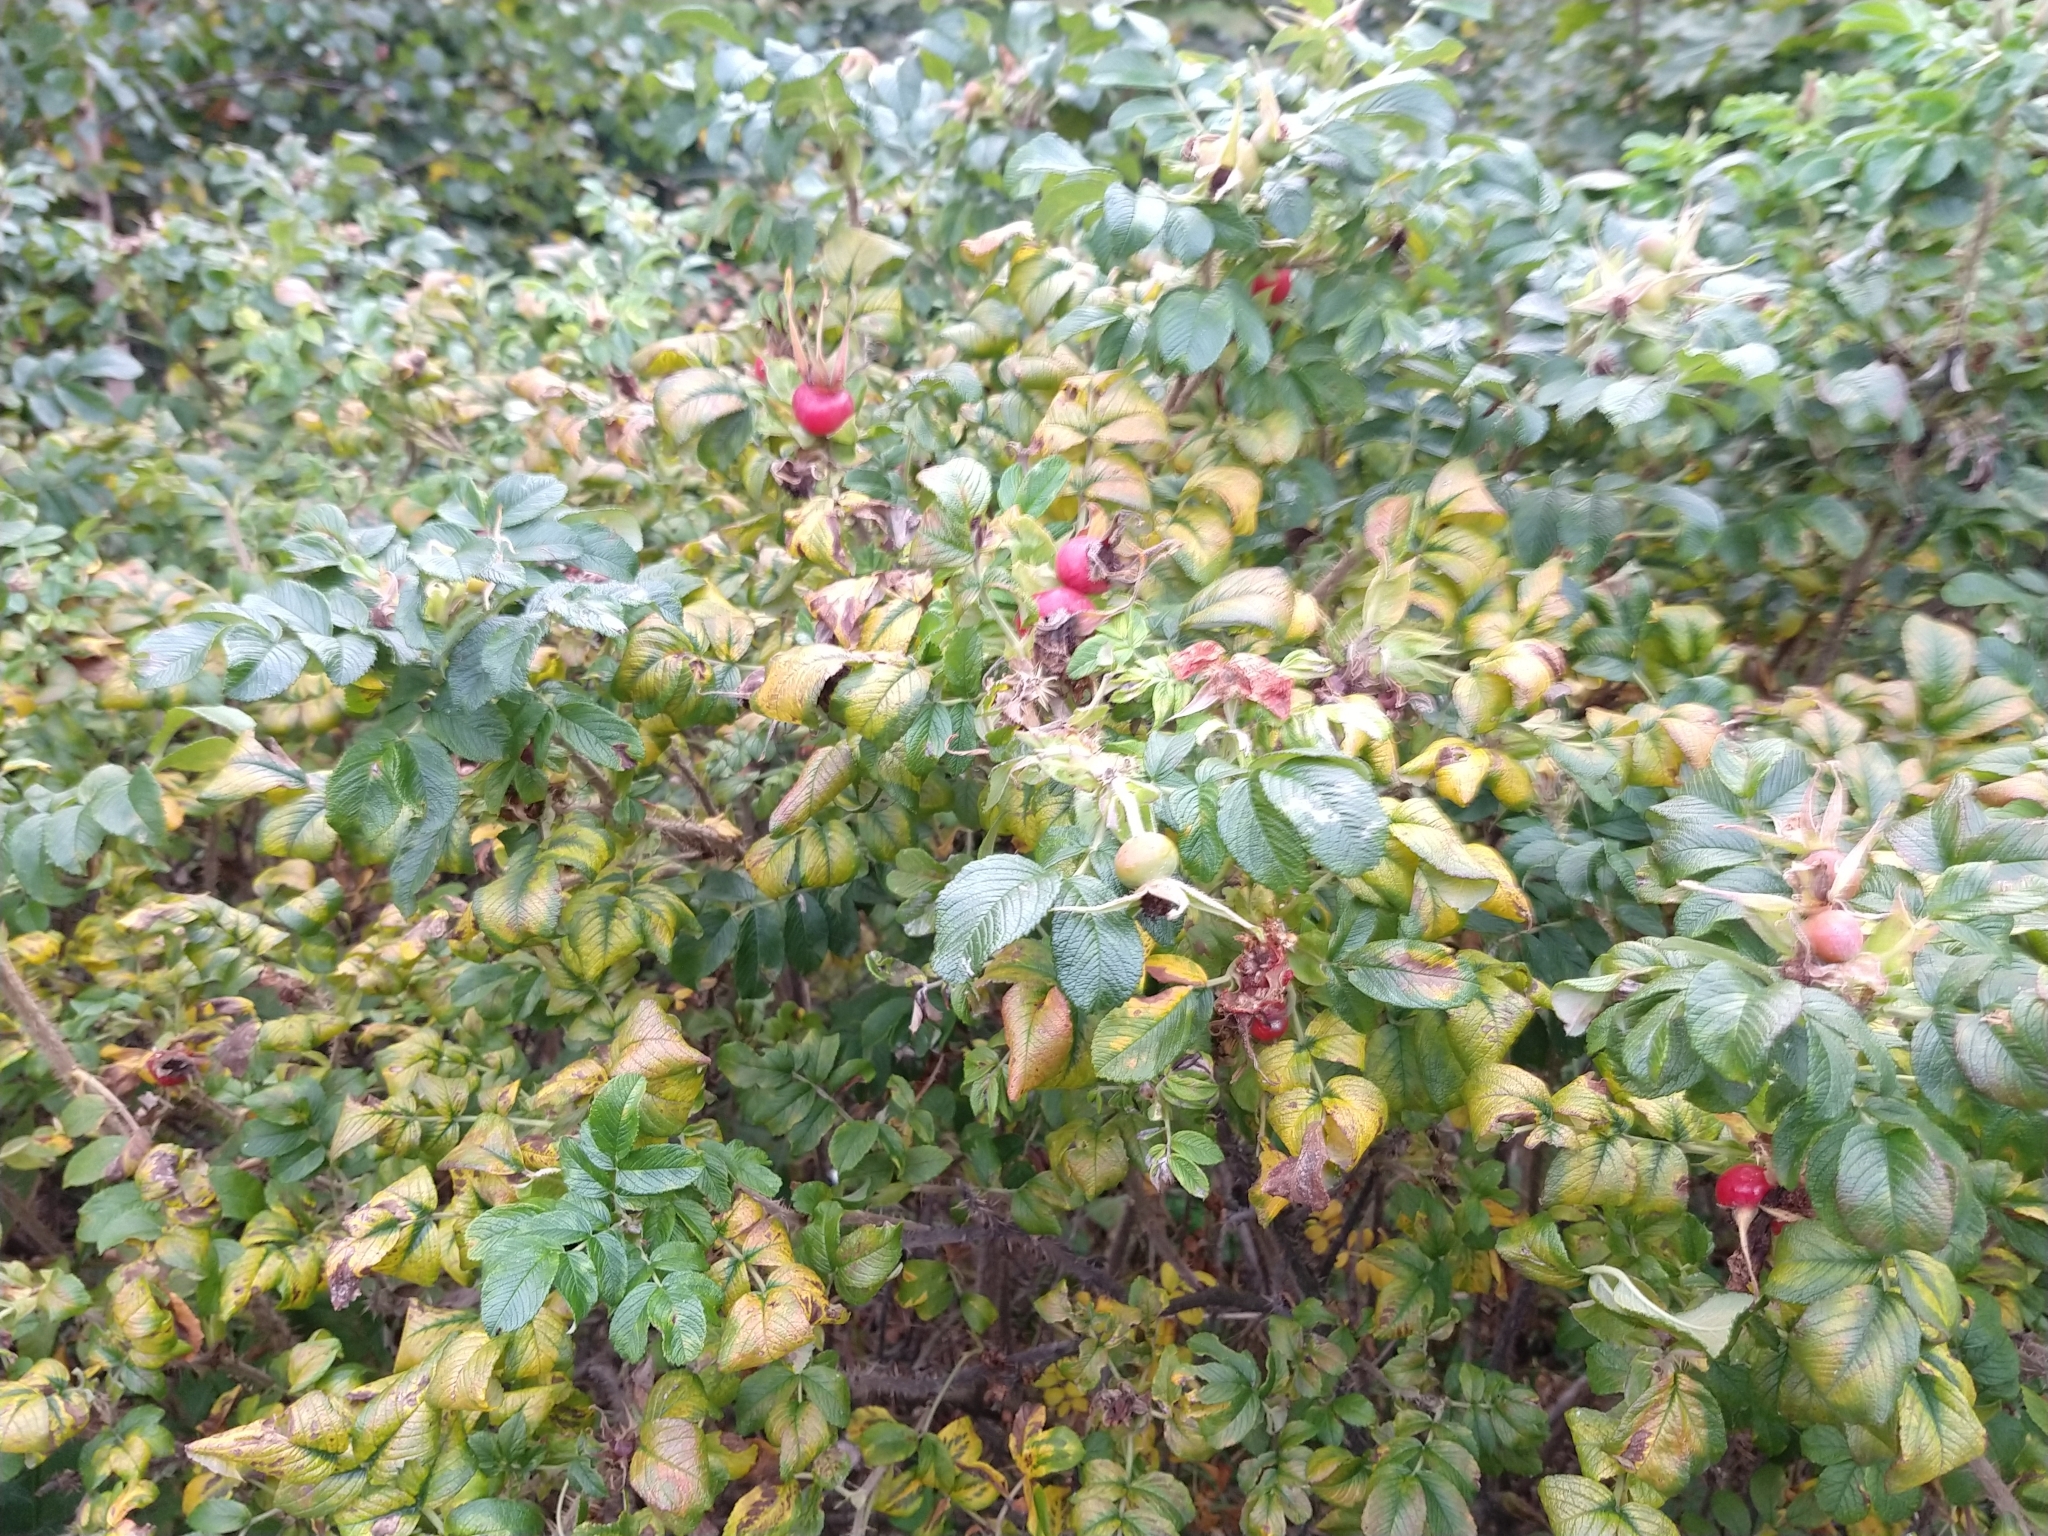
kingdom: Plantae
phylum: Tracheophyta
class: Magnoliopsida
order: Rosales
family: Rosaceae
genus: Rosa
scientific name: Rosa rugosa
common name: Japanese rose
